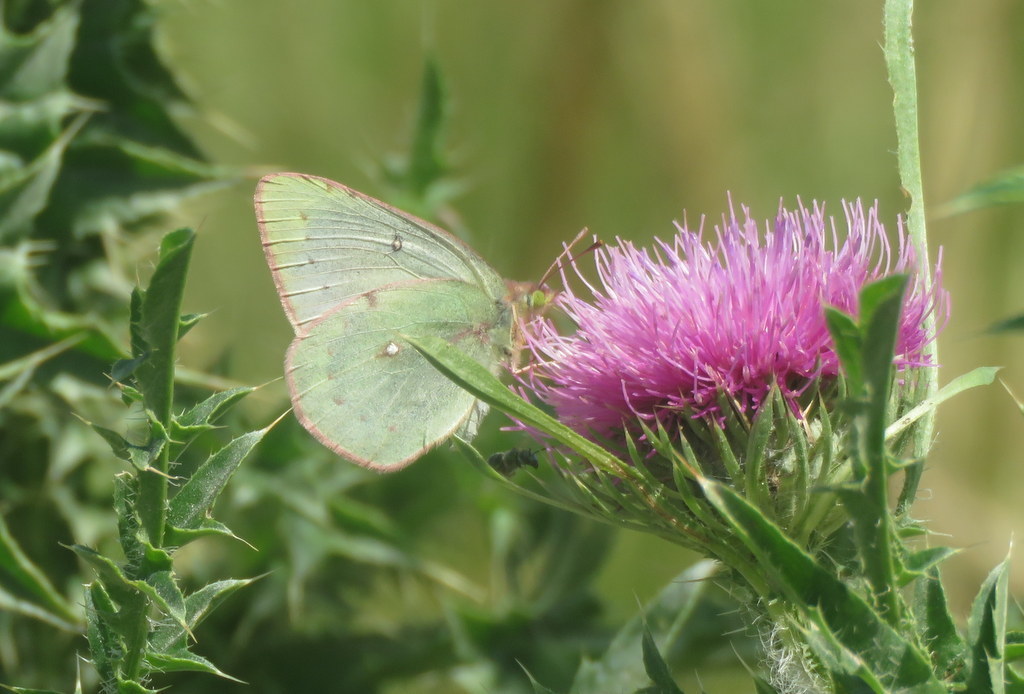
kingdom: Animalia
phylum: Arthropoda
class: Insecta
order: Lepidoptera
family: Pieridae
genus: Colias
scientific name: Colias lesbia
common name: Lesbia clouded yellow
